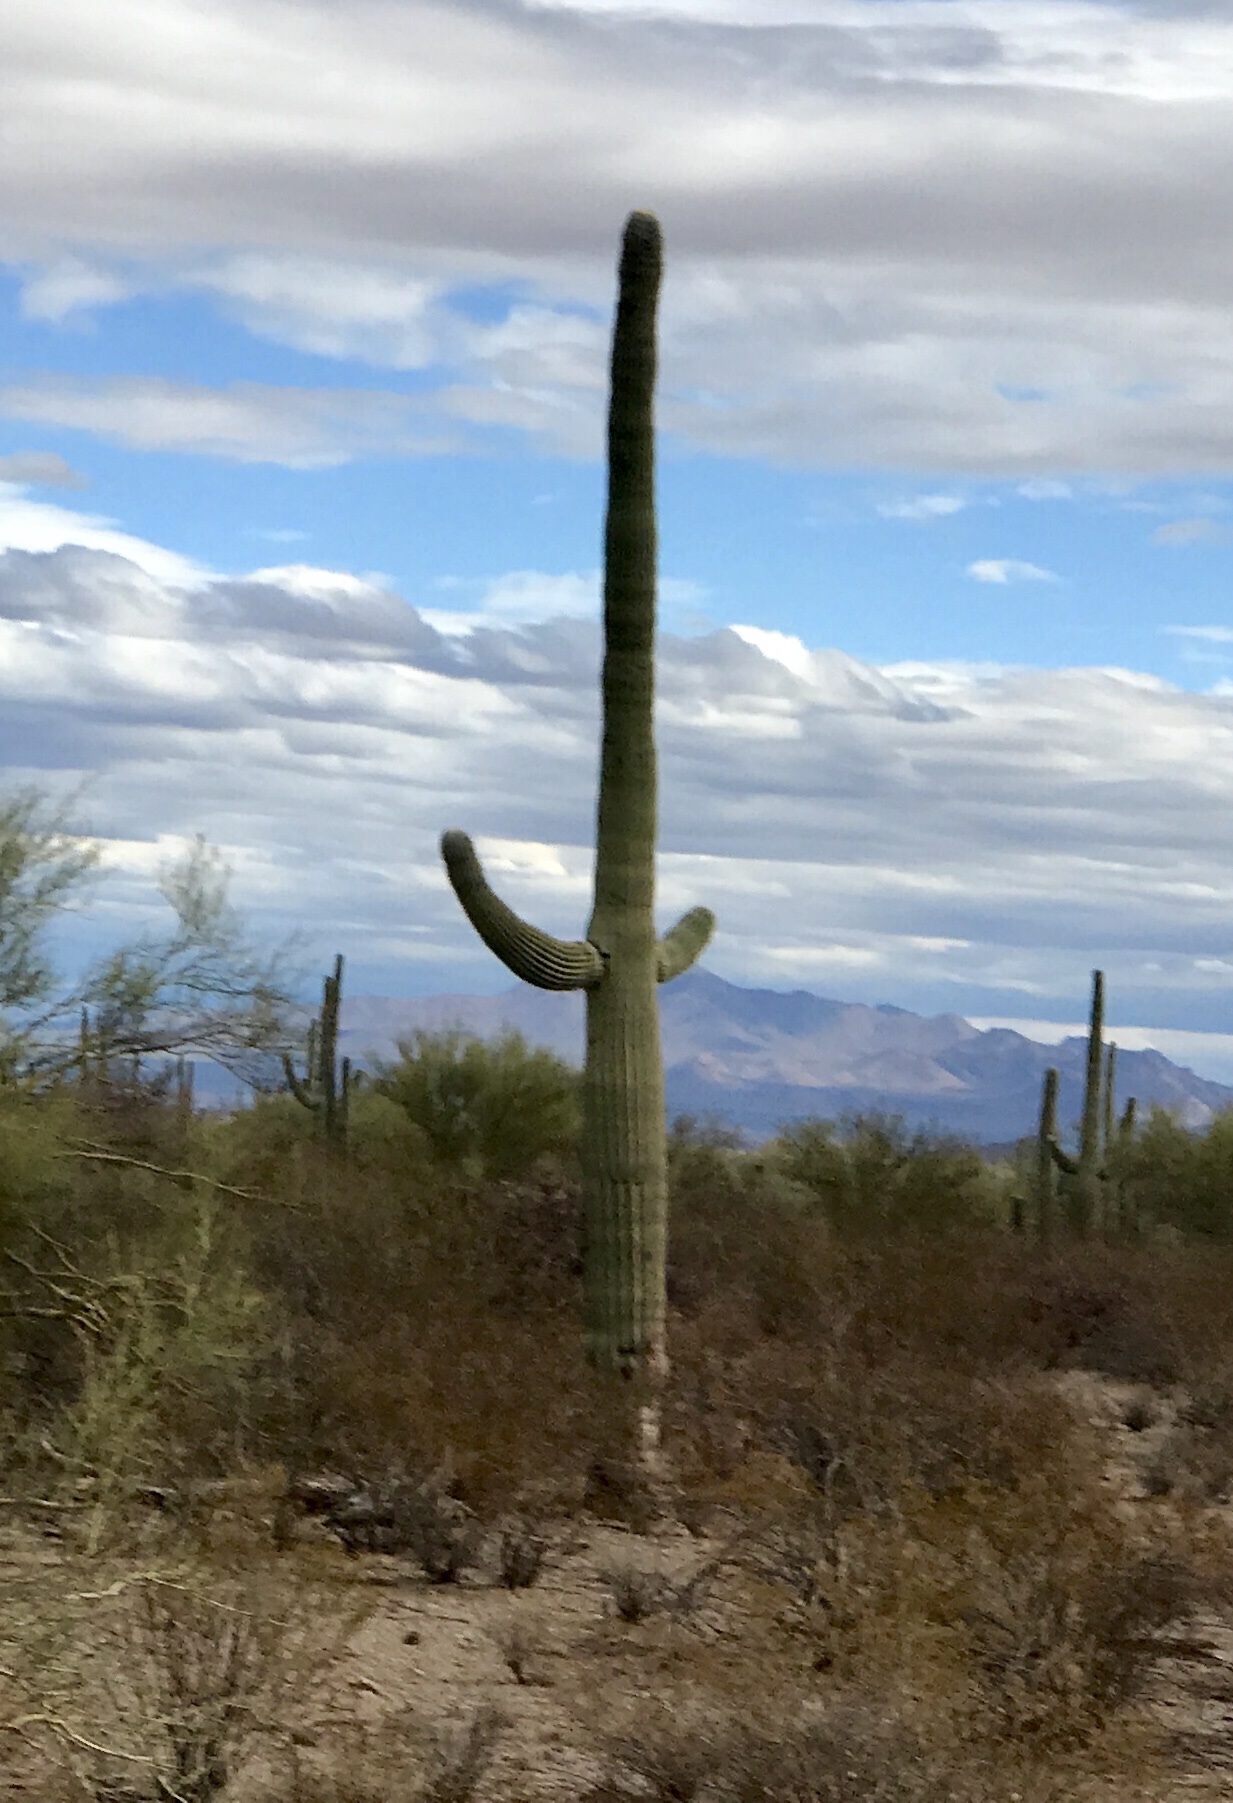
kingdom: Plantae
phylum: Tracheophyta
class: Magnoliopsida
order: Caryophyllales
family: Cactaceae
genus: Carnegiea
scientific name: Carnegiea gigantea
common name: Saguaro
